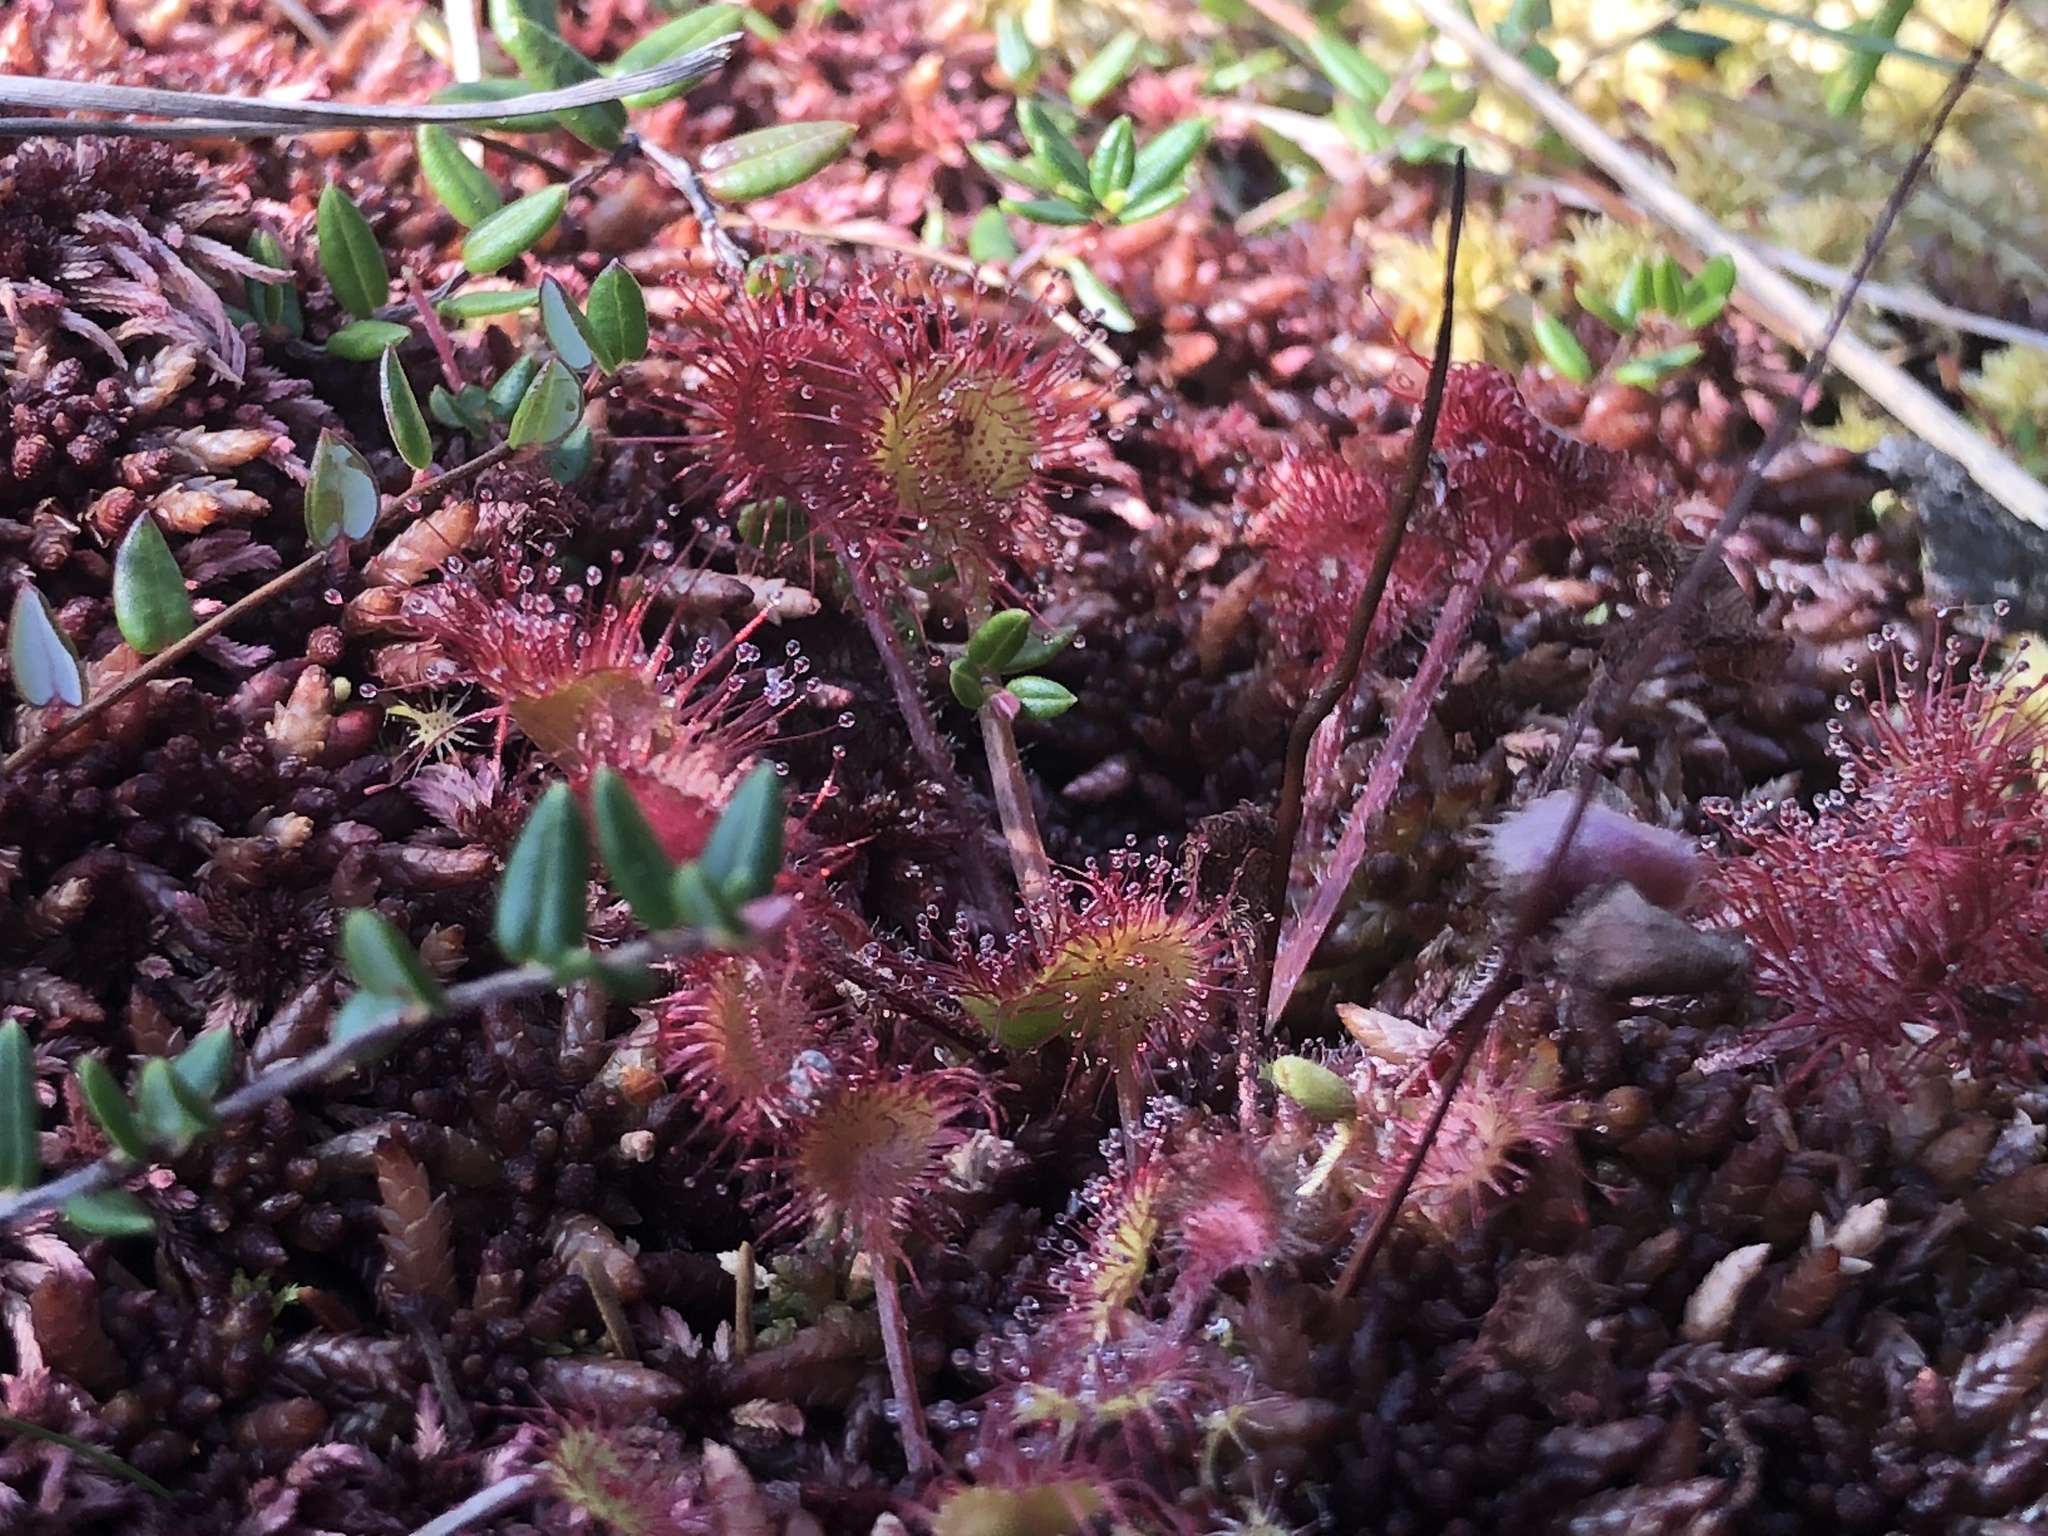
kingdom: Plantae
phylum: Tracheophyta
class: Magnoliopsida
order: Caryophyllales
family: Droseraceae
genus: Drosera
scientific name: Drosera rotundifolia
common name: Round-leaved sundew
